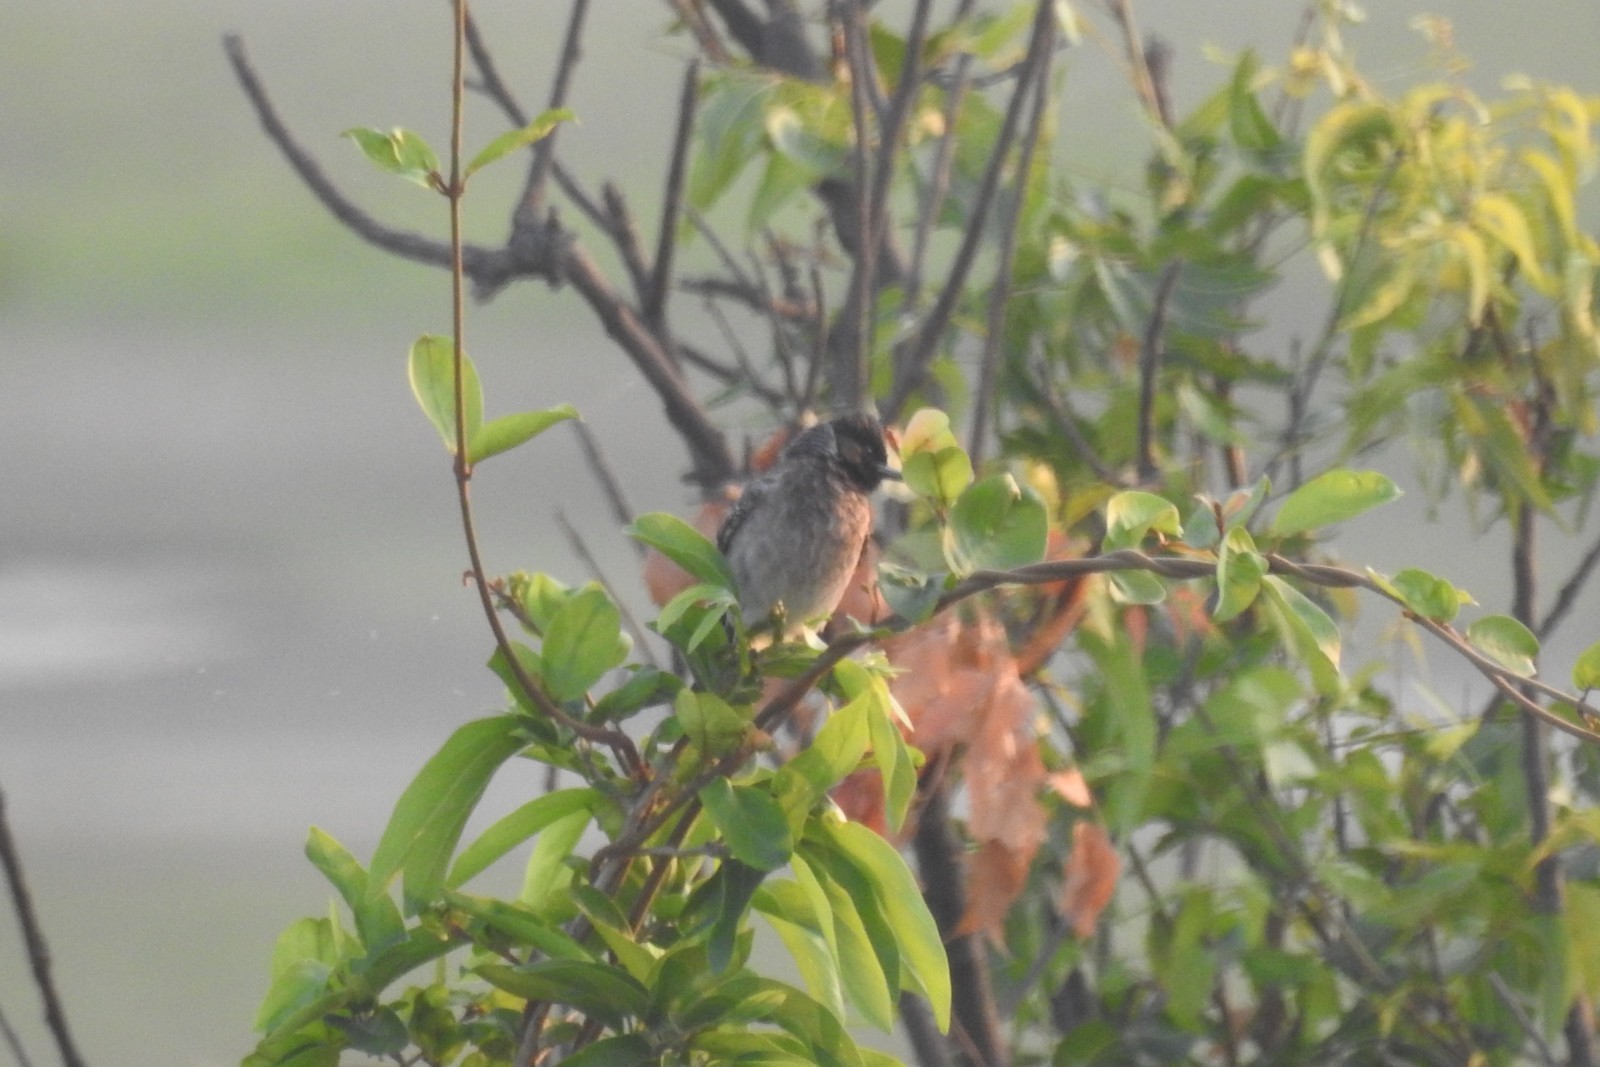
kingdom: Animalia
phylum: Chordata
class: Aves
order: Passeriformes
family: Pycnonotidae
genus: Pycnonotus
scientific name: Pycnonotus cafer
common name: Red-vented bulbul
